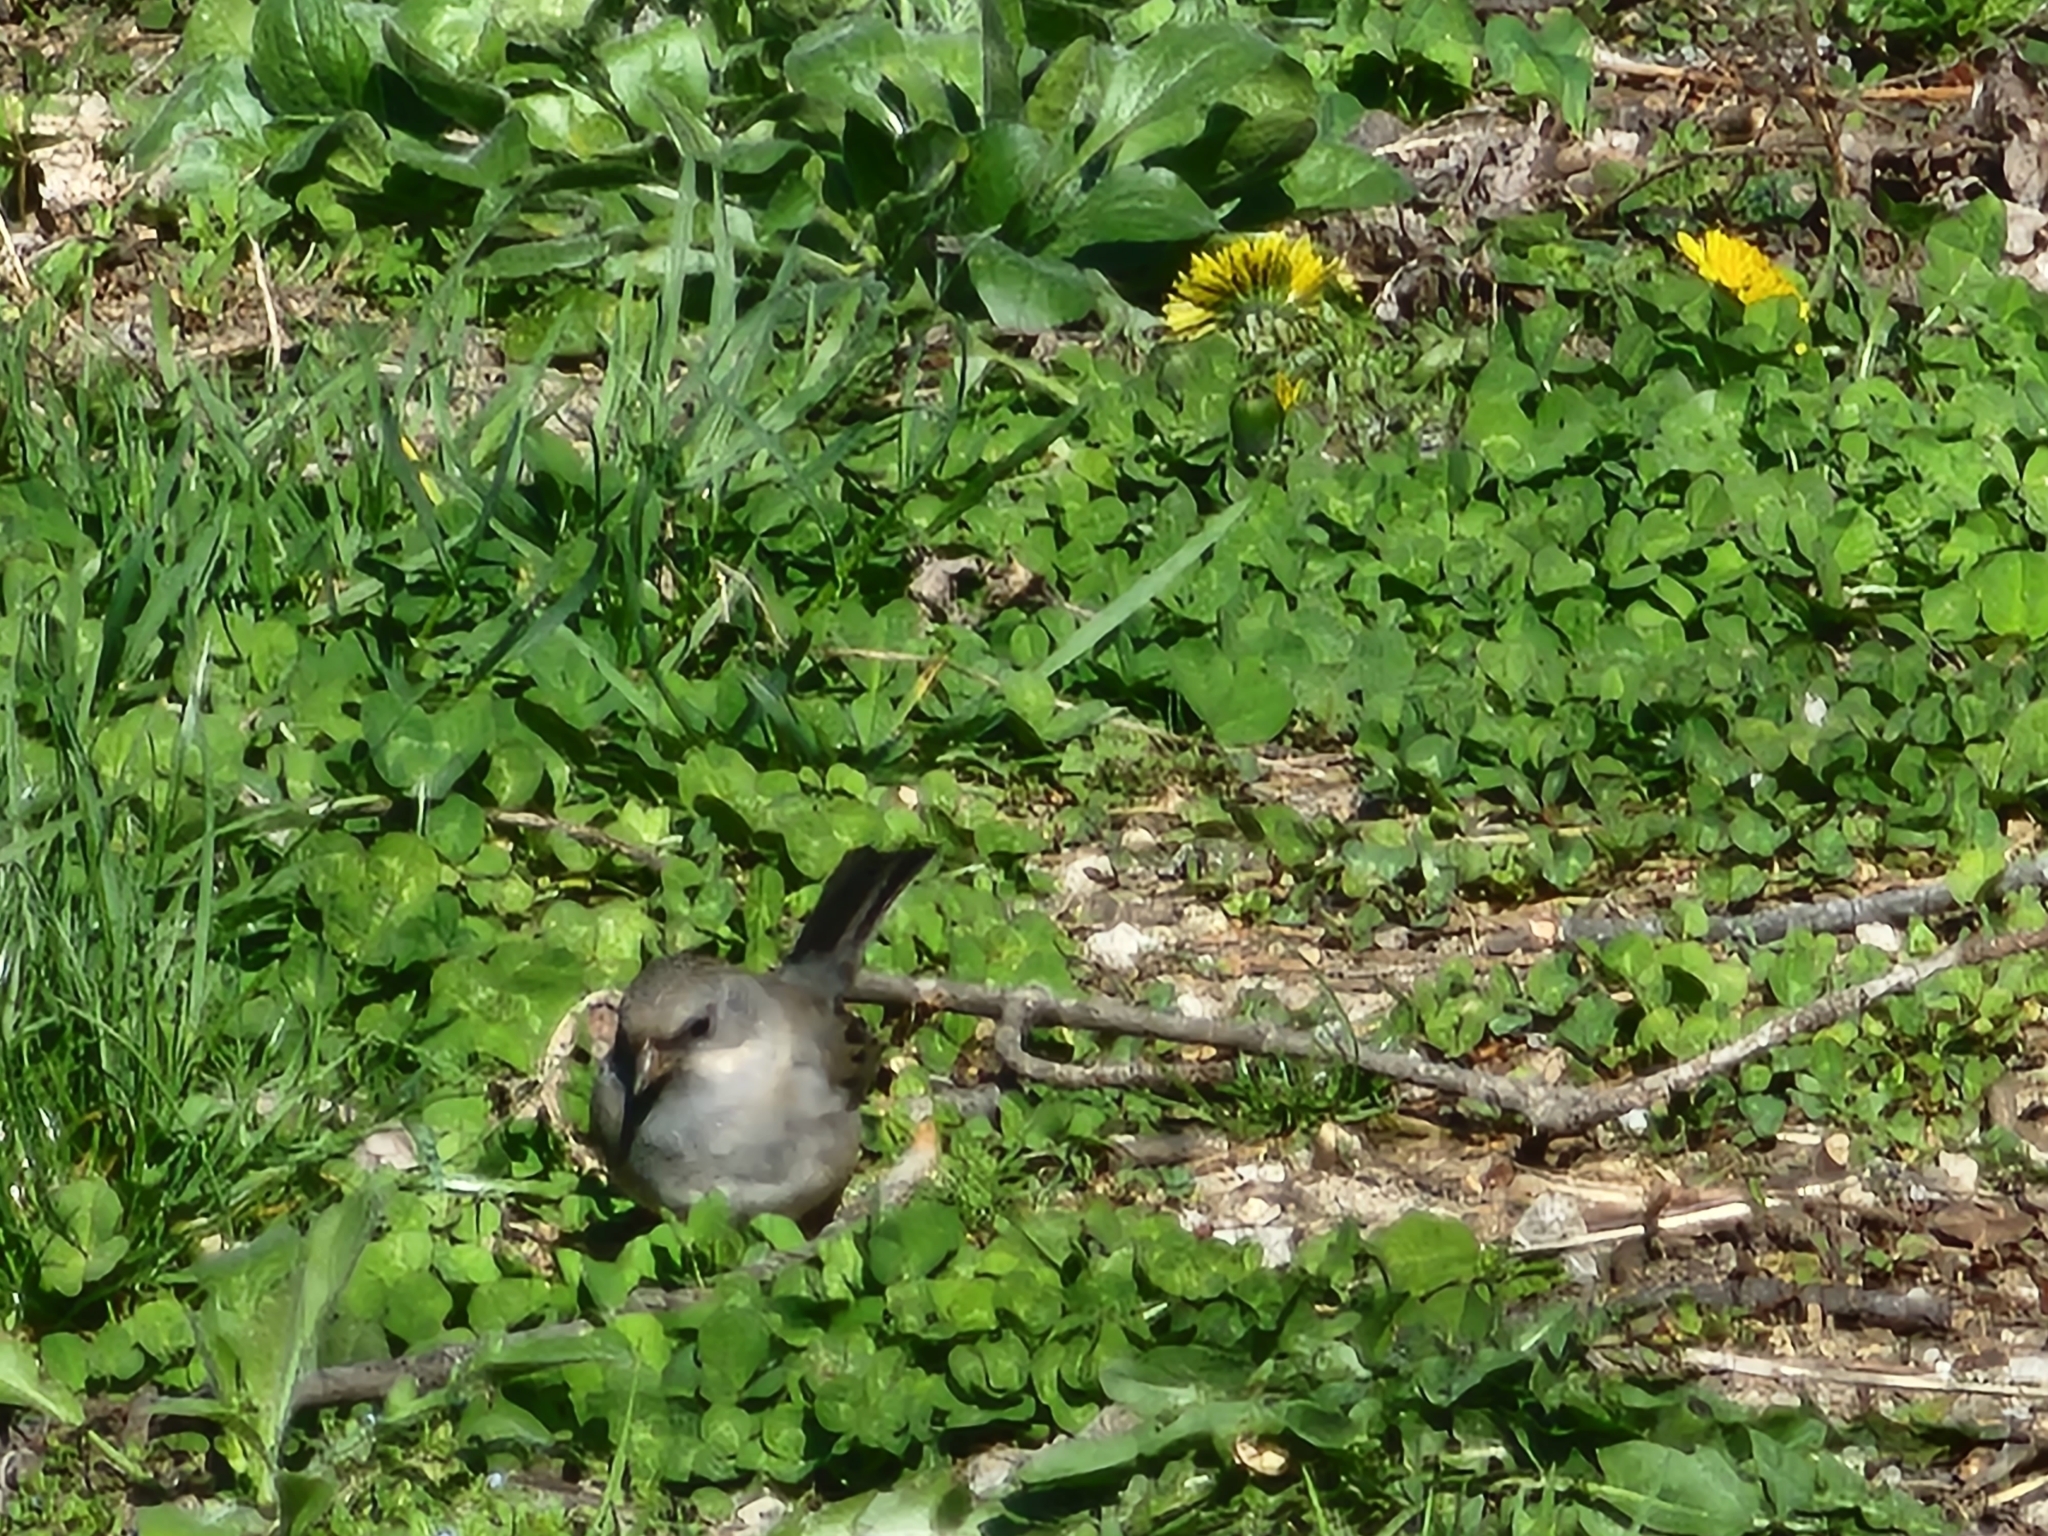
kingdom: Animalia
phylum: Chordata
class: Aves
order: Passeriformes
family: Passerellidae
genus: Junco
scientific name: Junco hyemalis
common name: Dark-eyed junco
